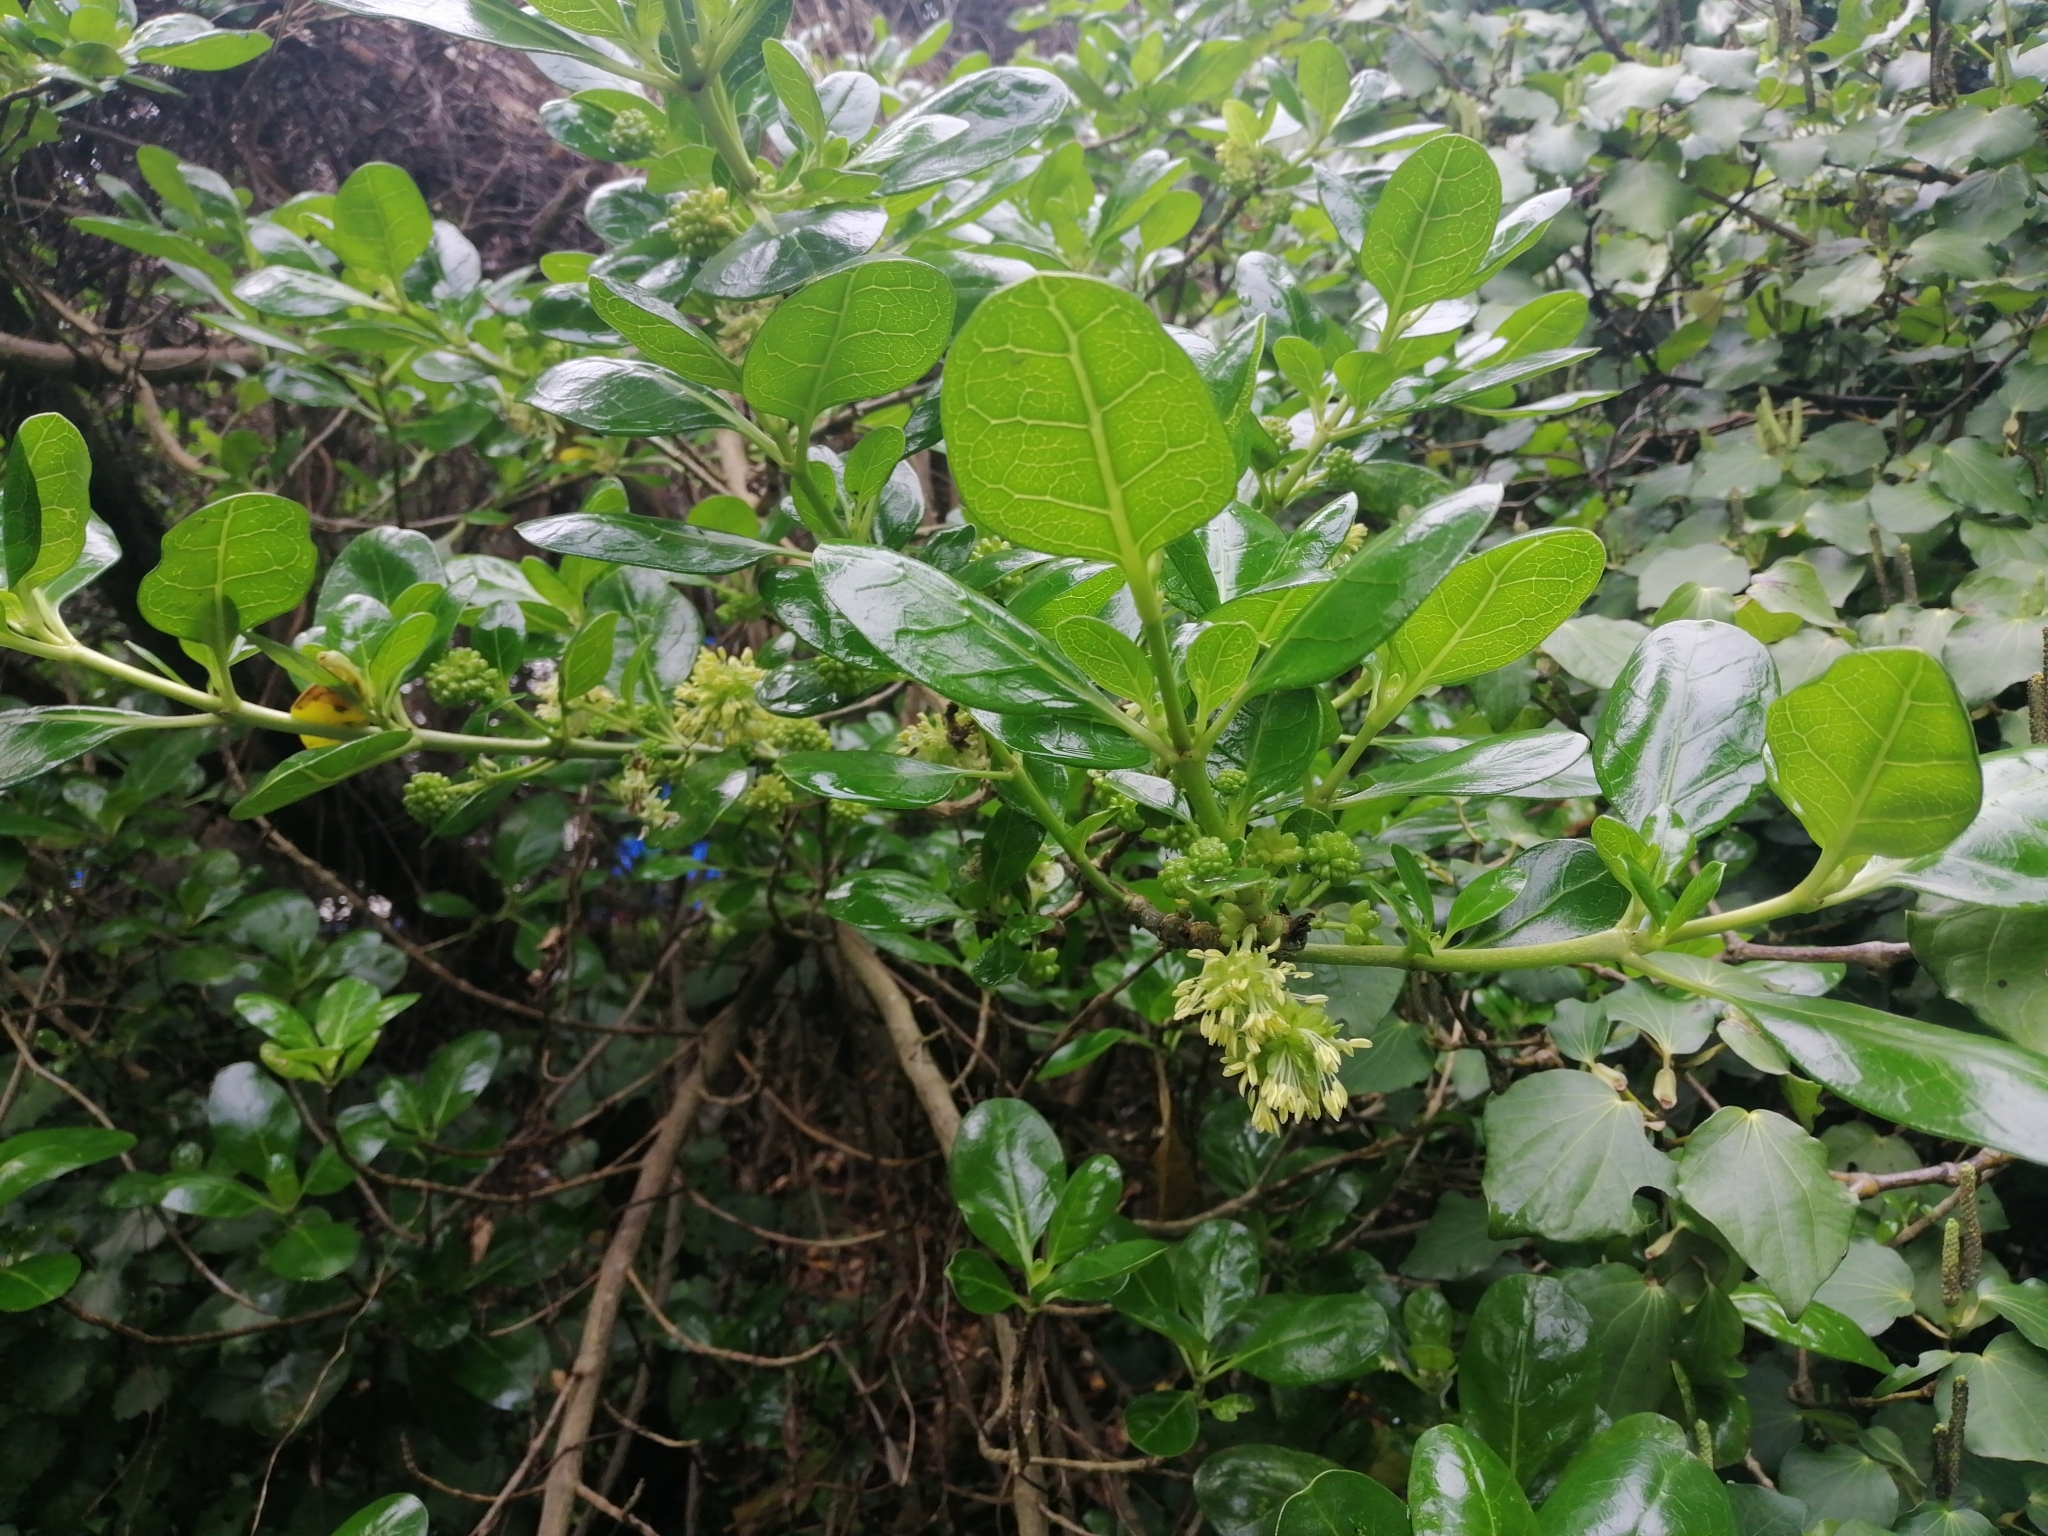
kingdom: Plantae
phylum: Tracheophyta
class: Magnoliopsida
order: Gentianales
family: Rubiaceae
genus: Coprosma
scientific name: Coprosma repens
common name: Tree bedstraw
